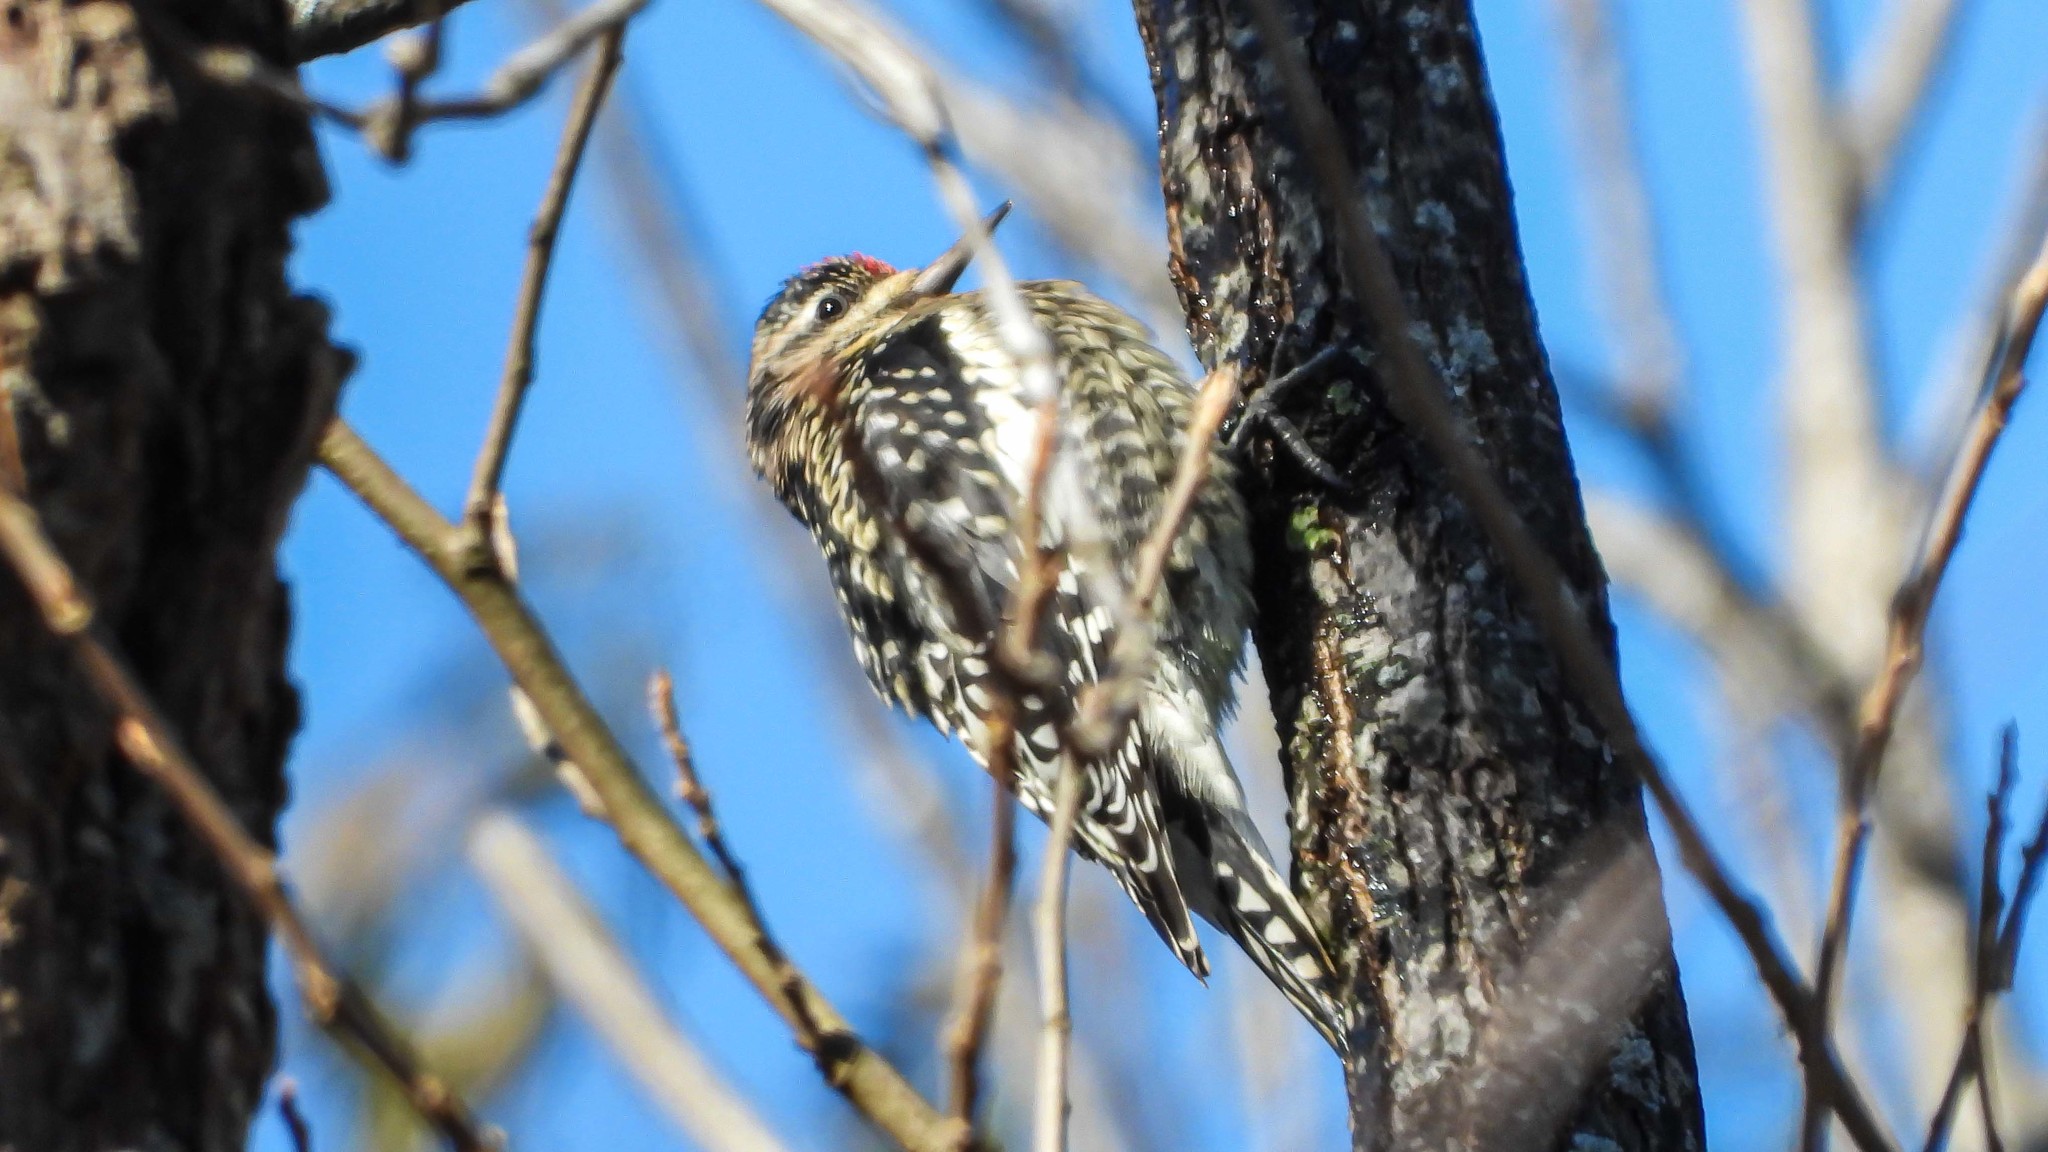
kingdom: Animalia
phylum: Chordata
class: Aves
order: Piciformes
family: Picidae
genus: Sphyrapicus
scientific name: Sphyrapicus varius
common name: Yellow-bellied sapsucker
